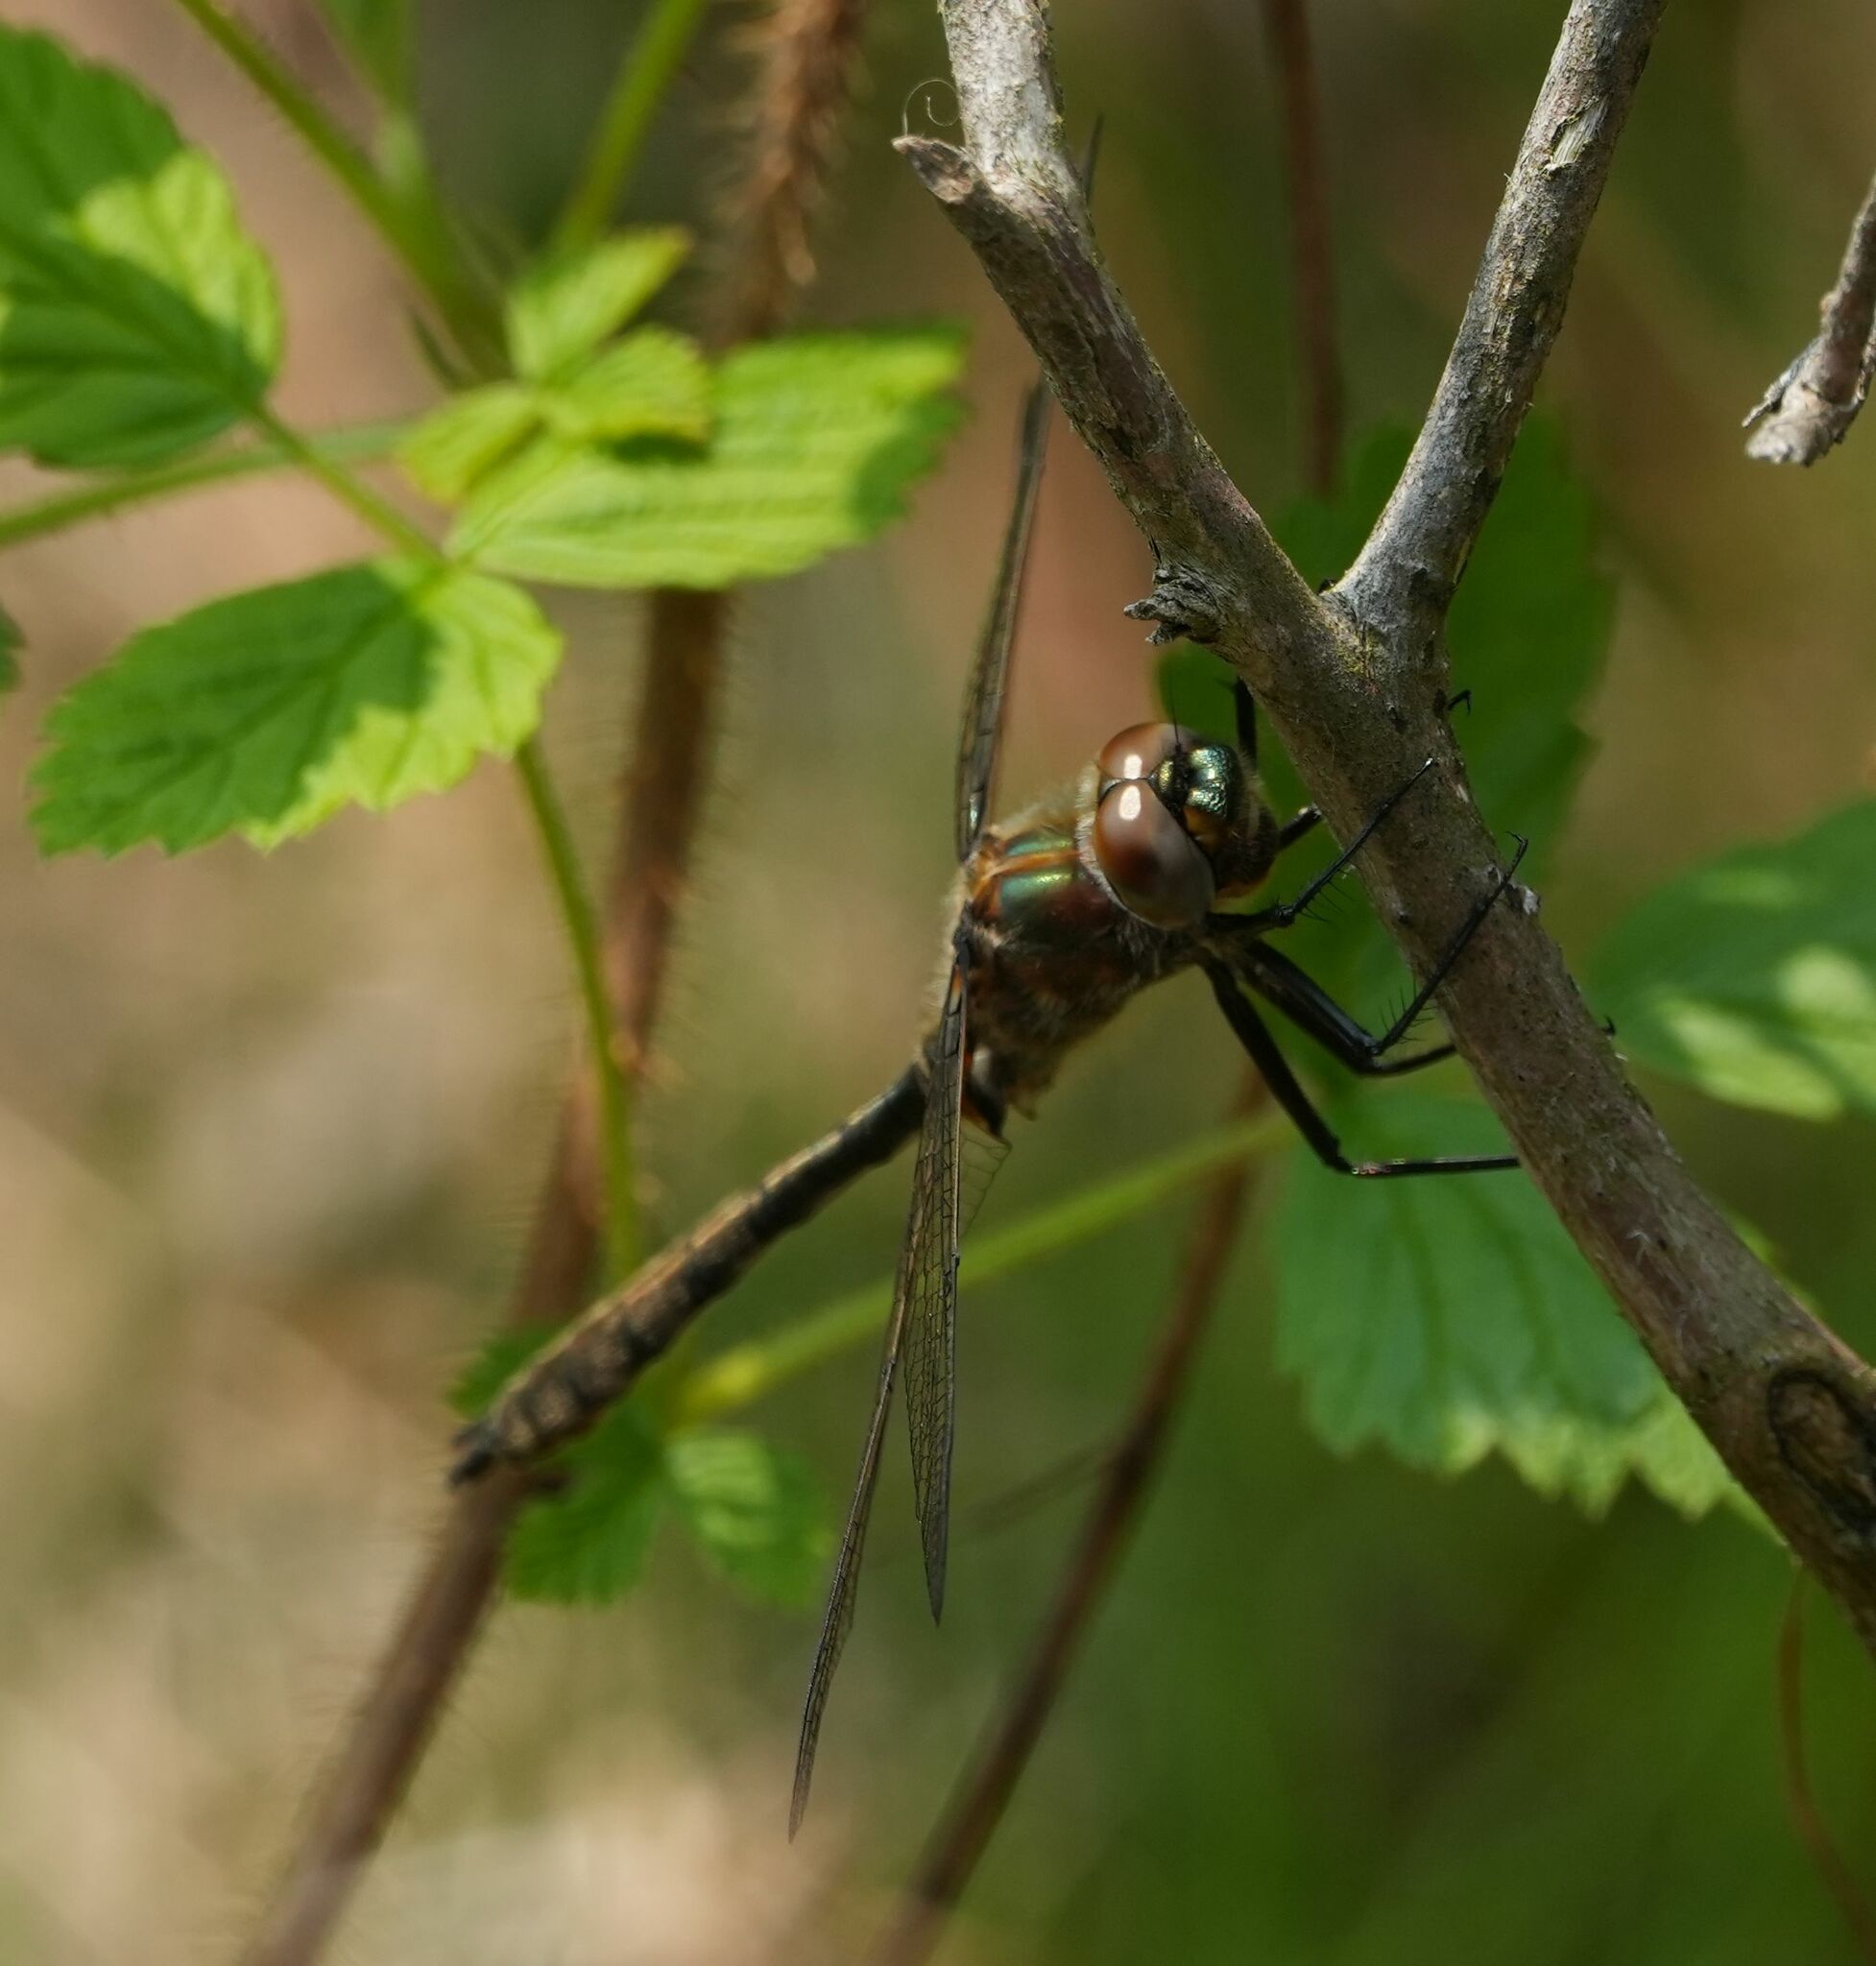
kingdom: Animalia
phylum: Arthropoda
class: Insecta
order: Odonata
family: Corduliidae
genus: Cordulia
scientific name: Cordulia shurtleffii
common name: American emerald
